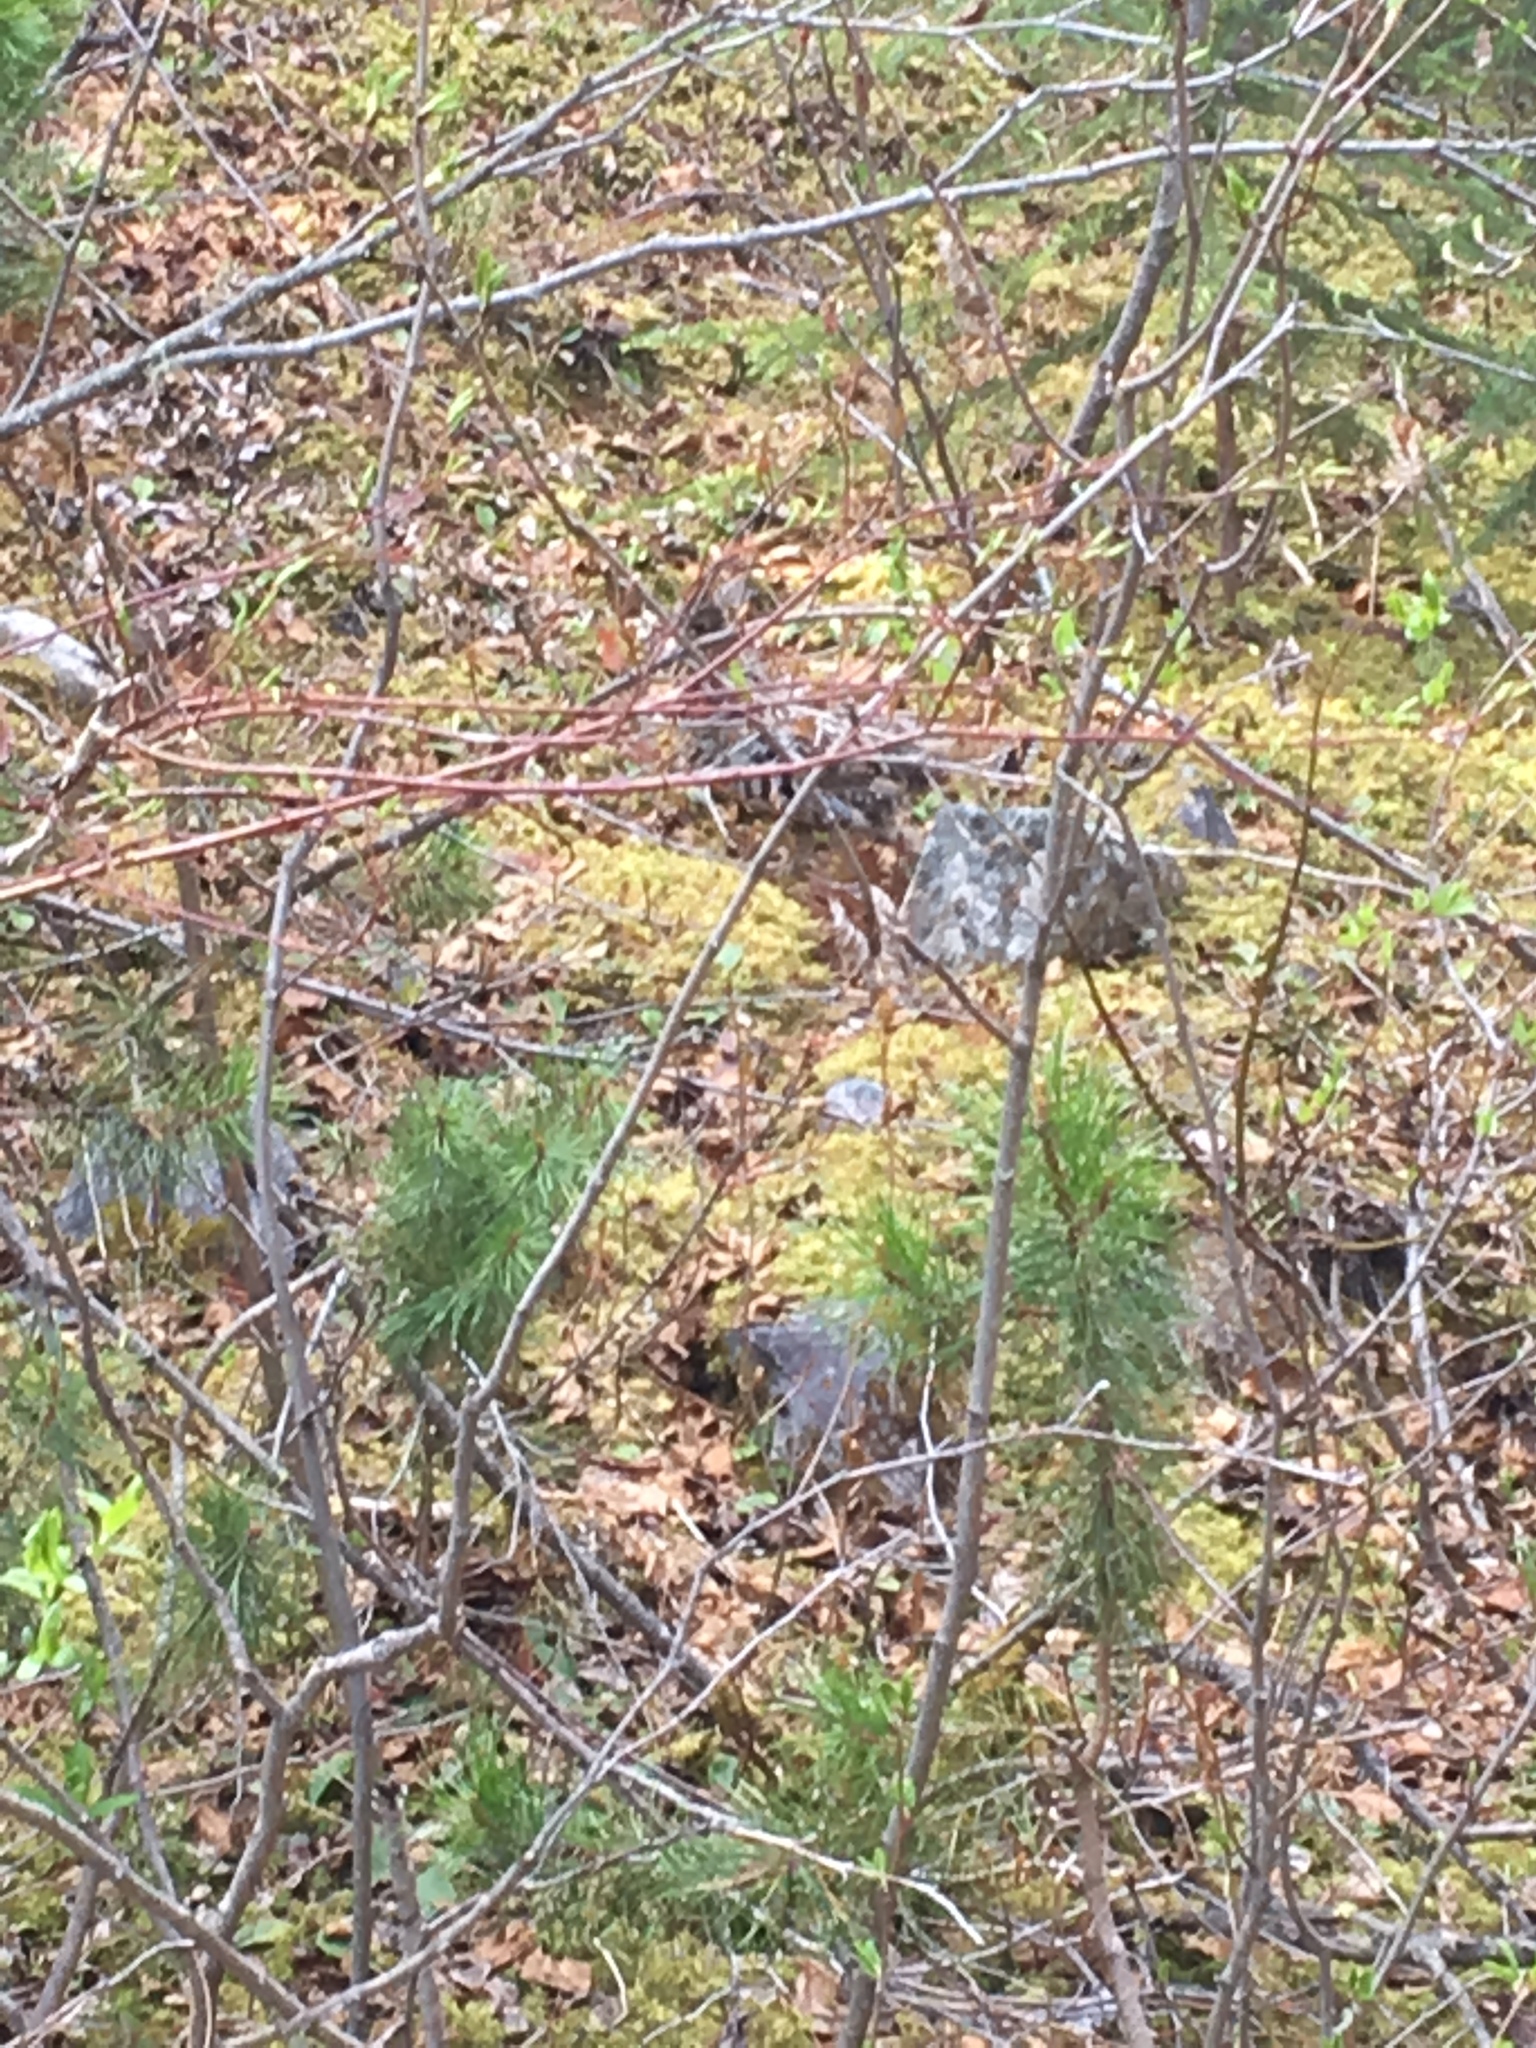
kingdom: Animalia
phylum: Chordata
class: Aves
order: Galliformes
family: Phasianidae
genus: Bonasa
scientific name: Bonasa umbellus
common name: Ruffed grouse
